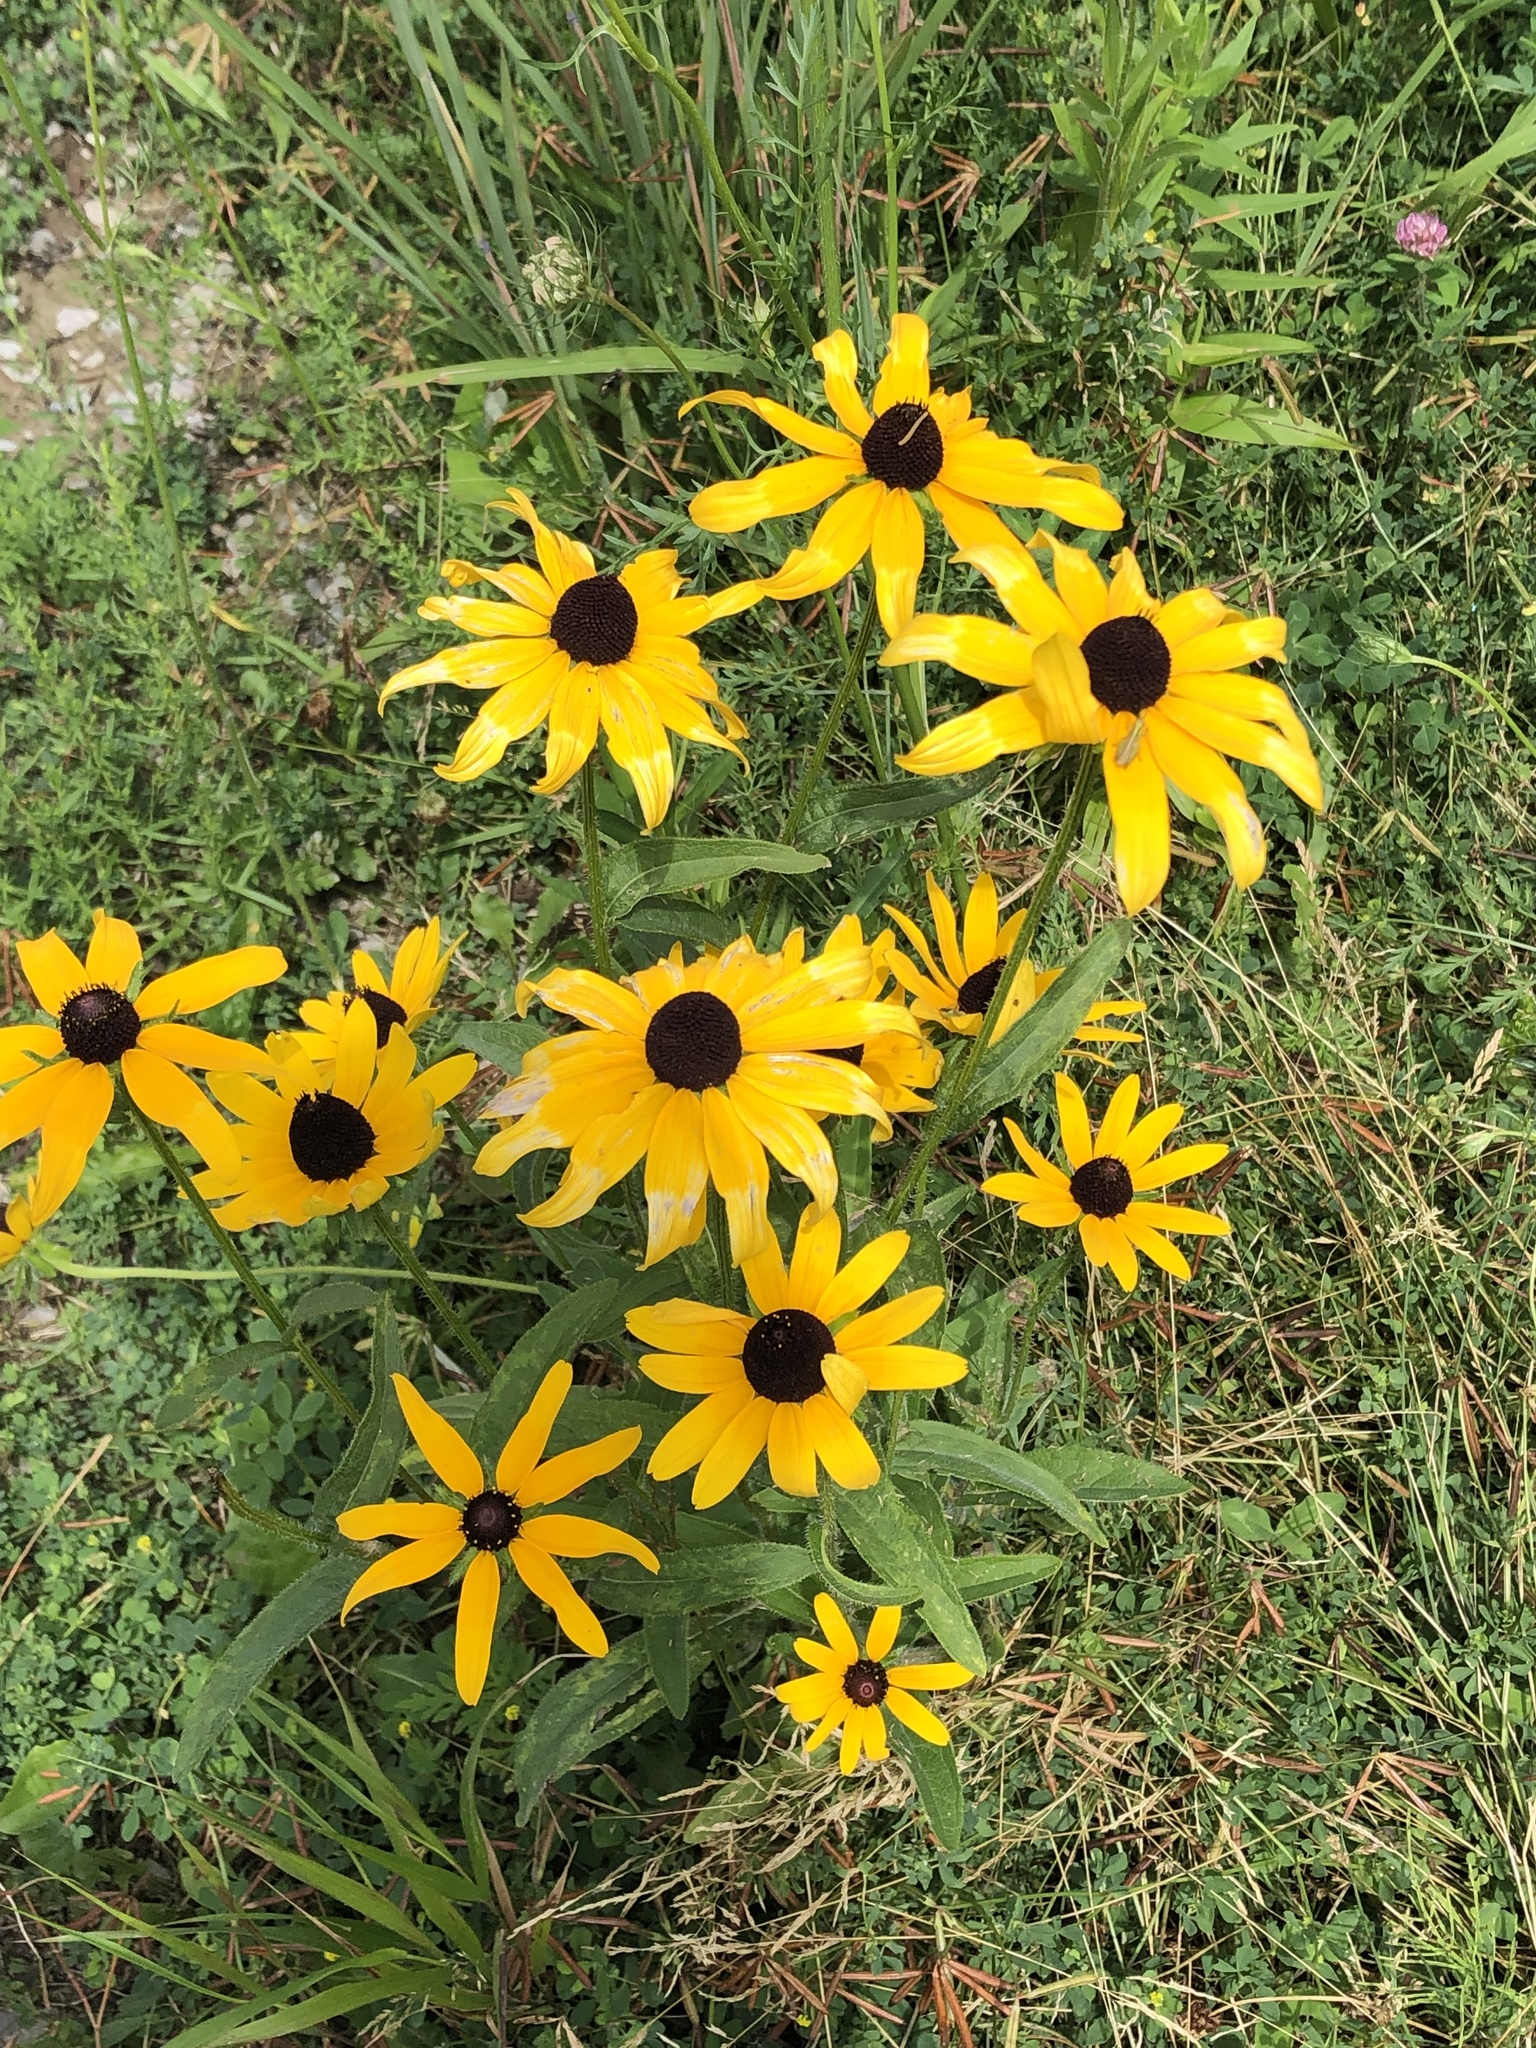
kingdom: Plantae
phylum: Tracheophyta
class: Magnoliopsida
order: Asterales
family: Asteraceae
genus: Rudbeckia
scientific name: Rudbeckia hirta
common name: Black-eyed-susan
